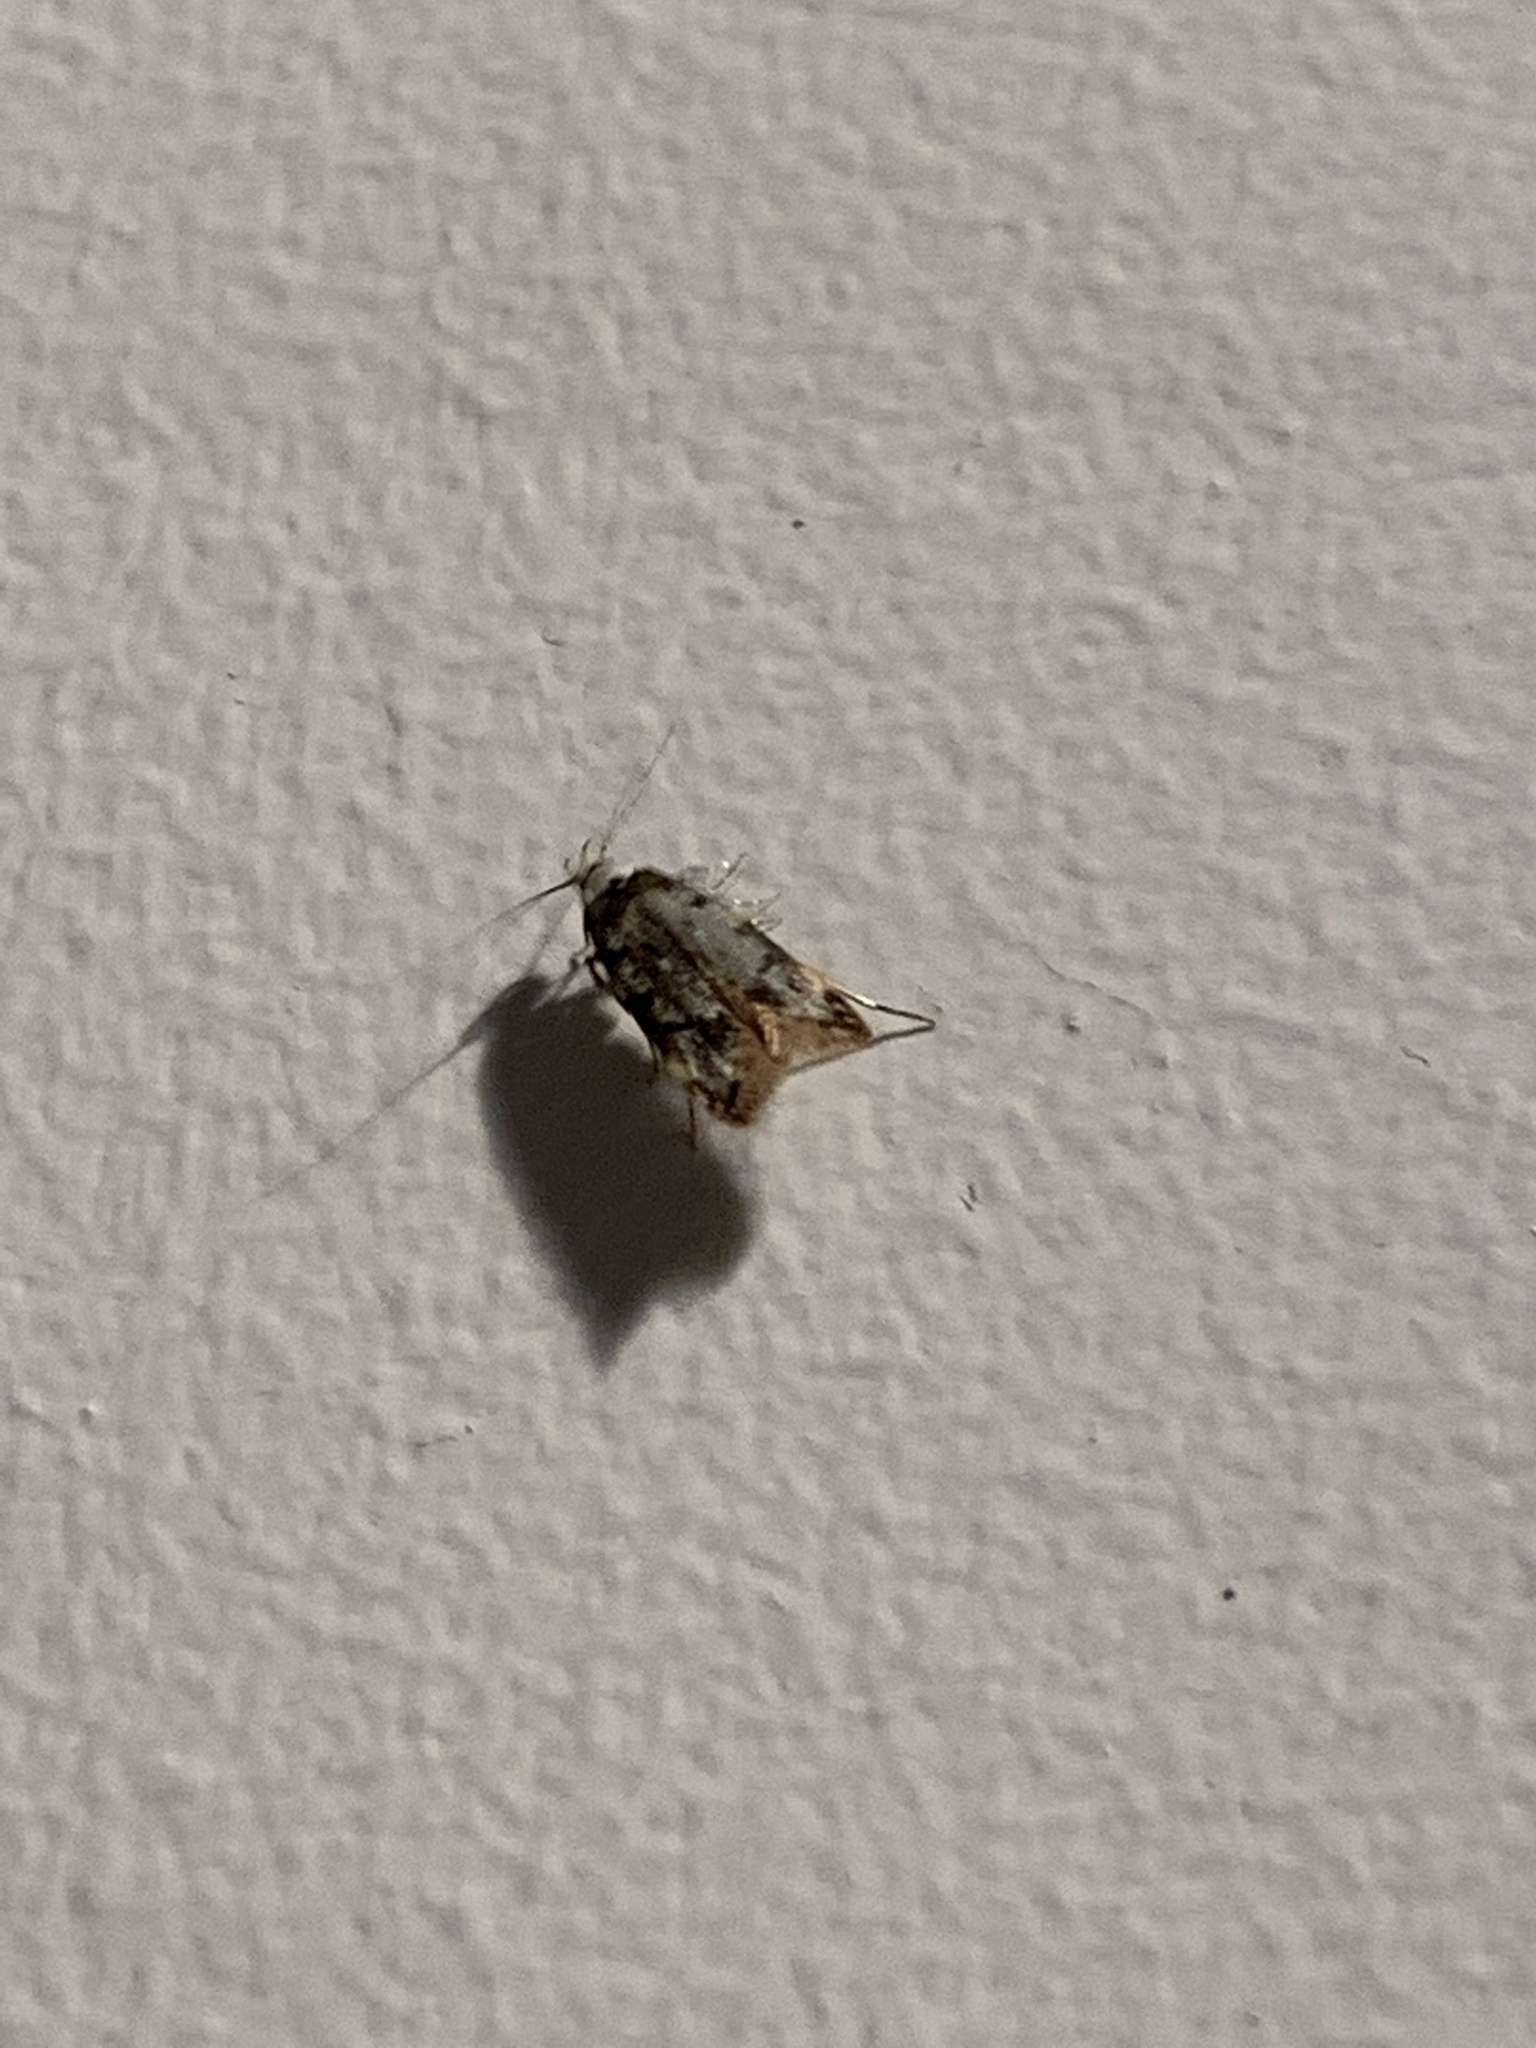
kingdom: Animalia
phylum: Arthropoda
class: Insecta
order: Lepidoptera
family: Oecophoridae
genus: Endrosis
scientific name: Endrosis sarcitrella
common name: White-shouldered house moth
